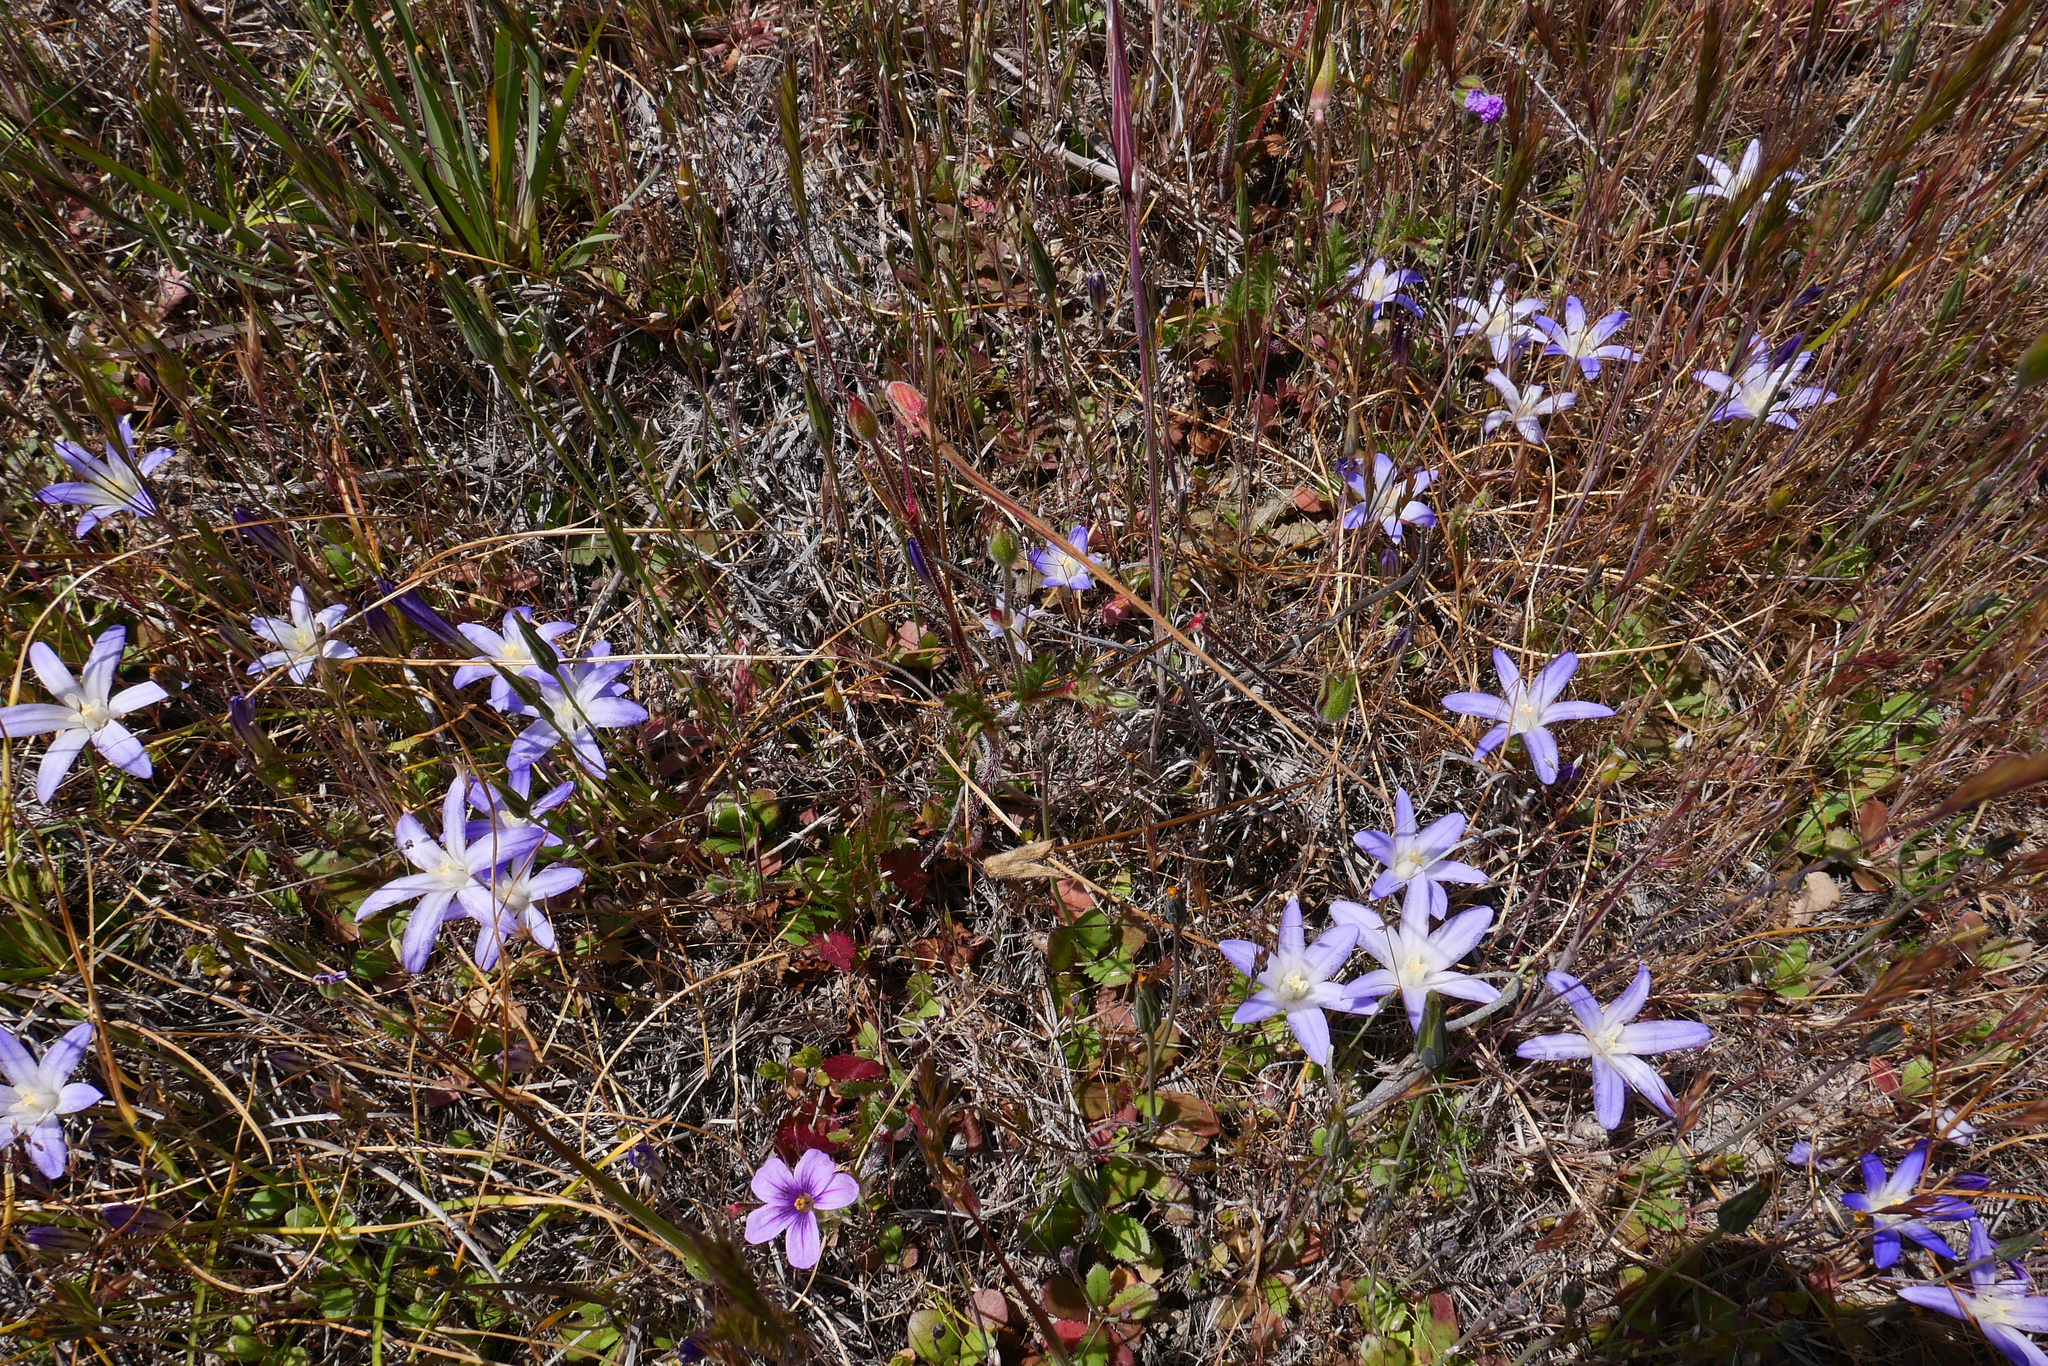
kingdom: Plantae
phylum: Tracheophyta
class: Liliopsida
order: Asparagales
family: Asparagaceae
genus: Brodiaea
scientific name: Brodiaea terrestris
